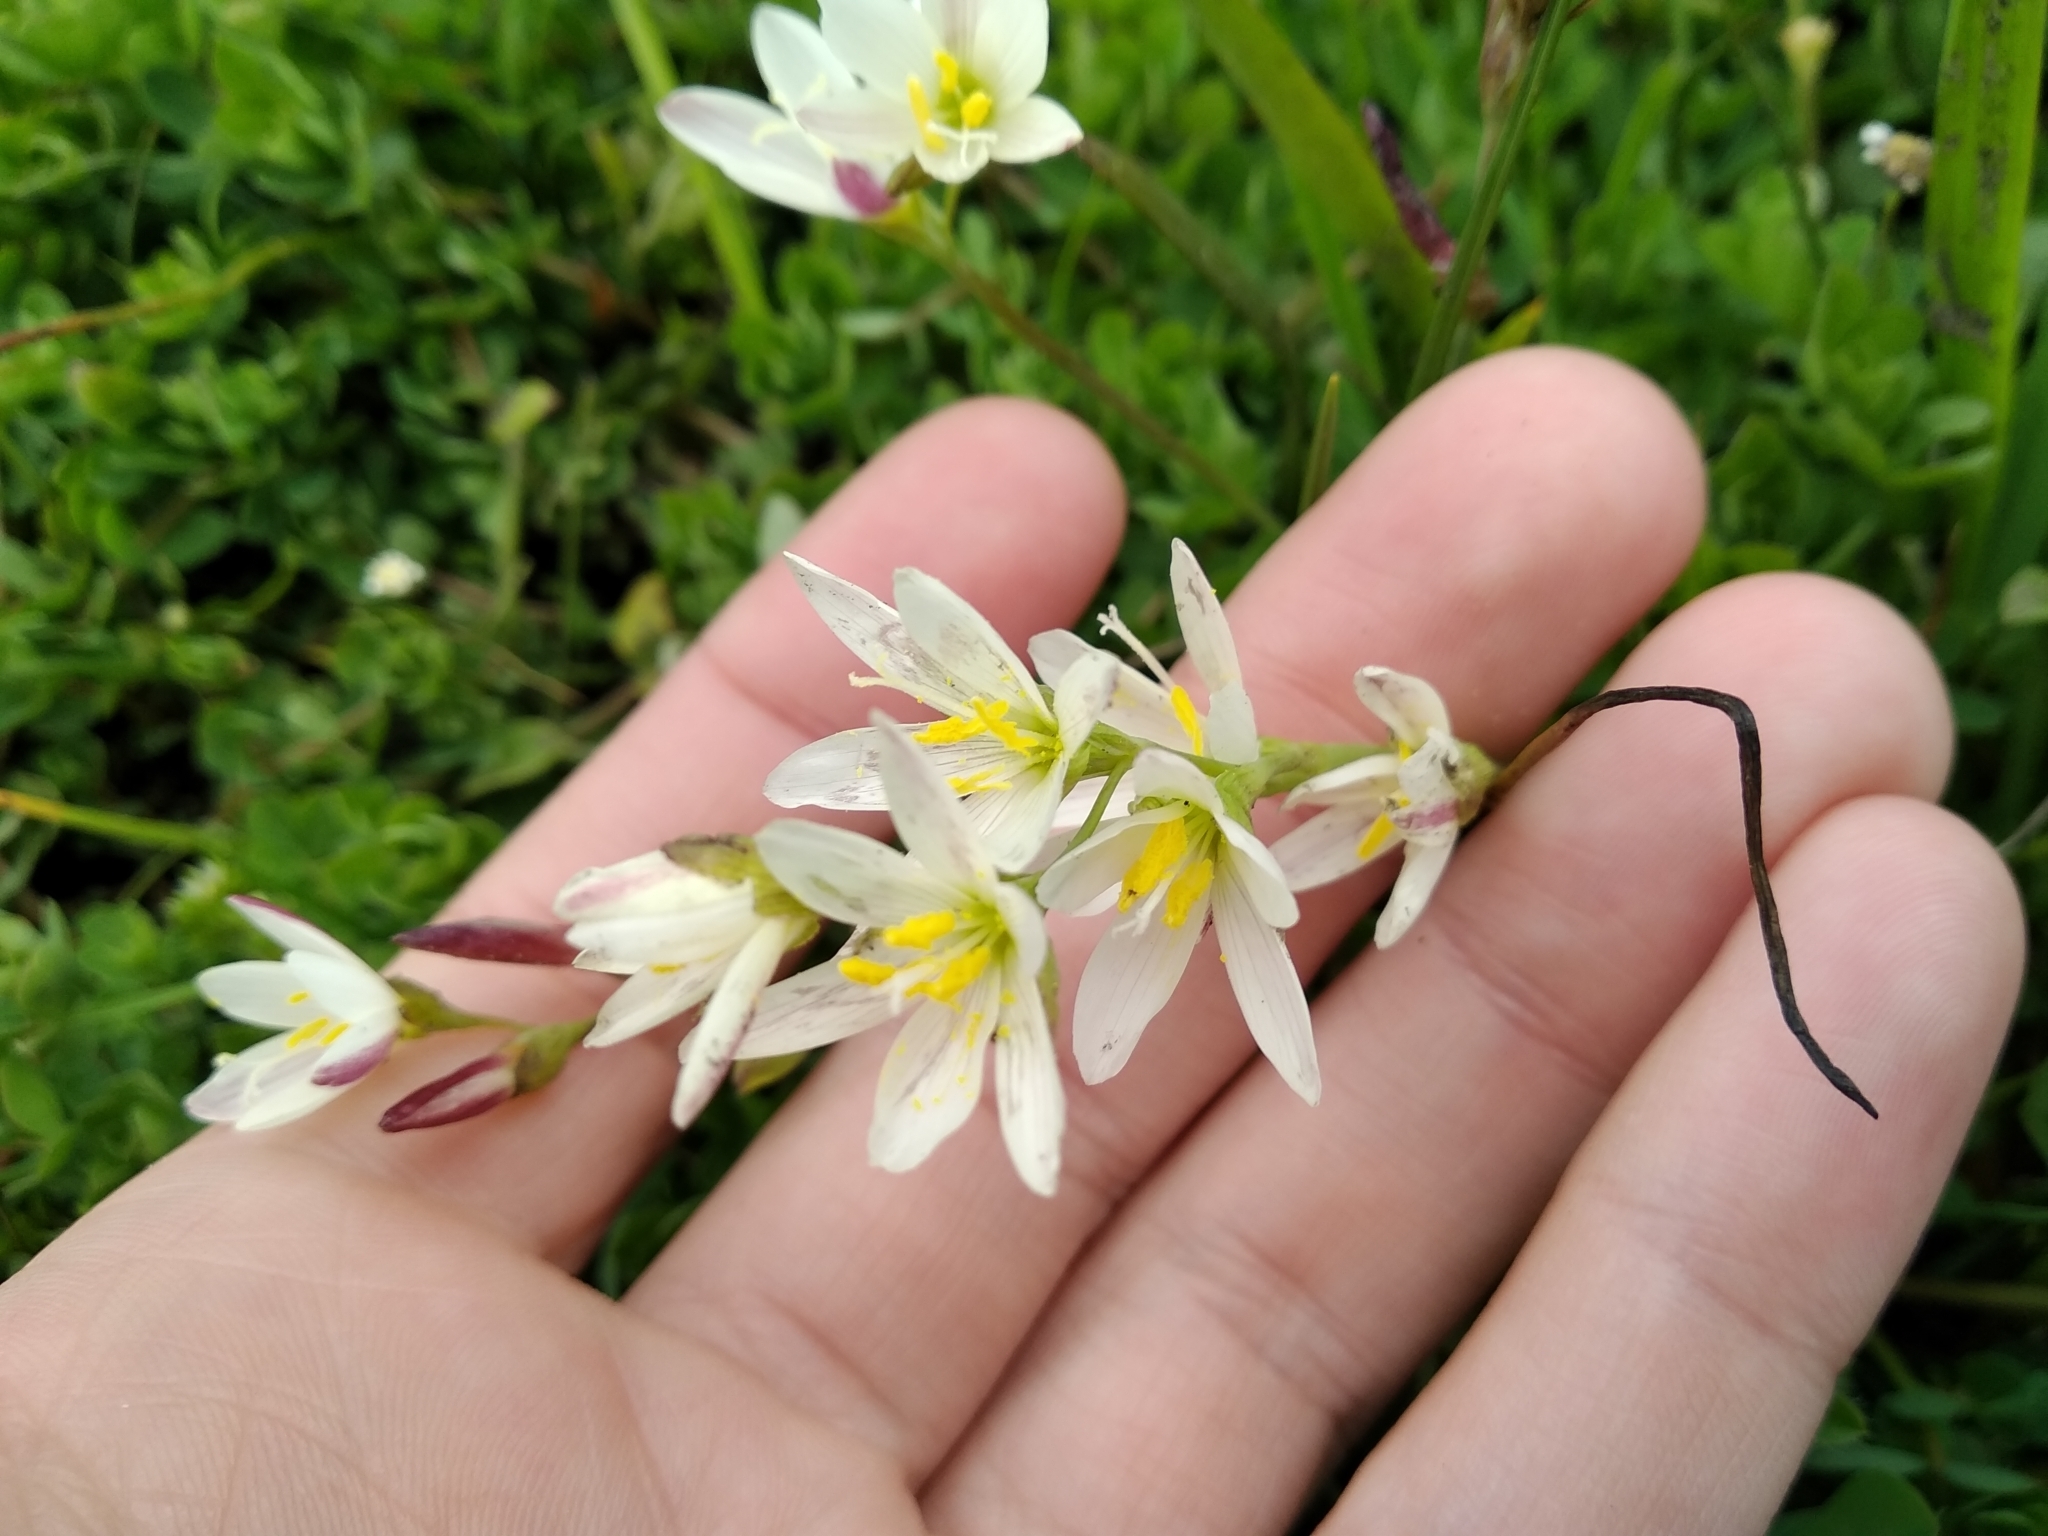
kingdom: Plantae
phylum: Tracheophyta
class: Liliopsida
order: Asparagales
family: Iridaceae
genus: Geissorhiza
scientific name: Geissorhiza imbricata
